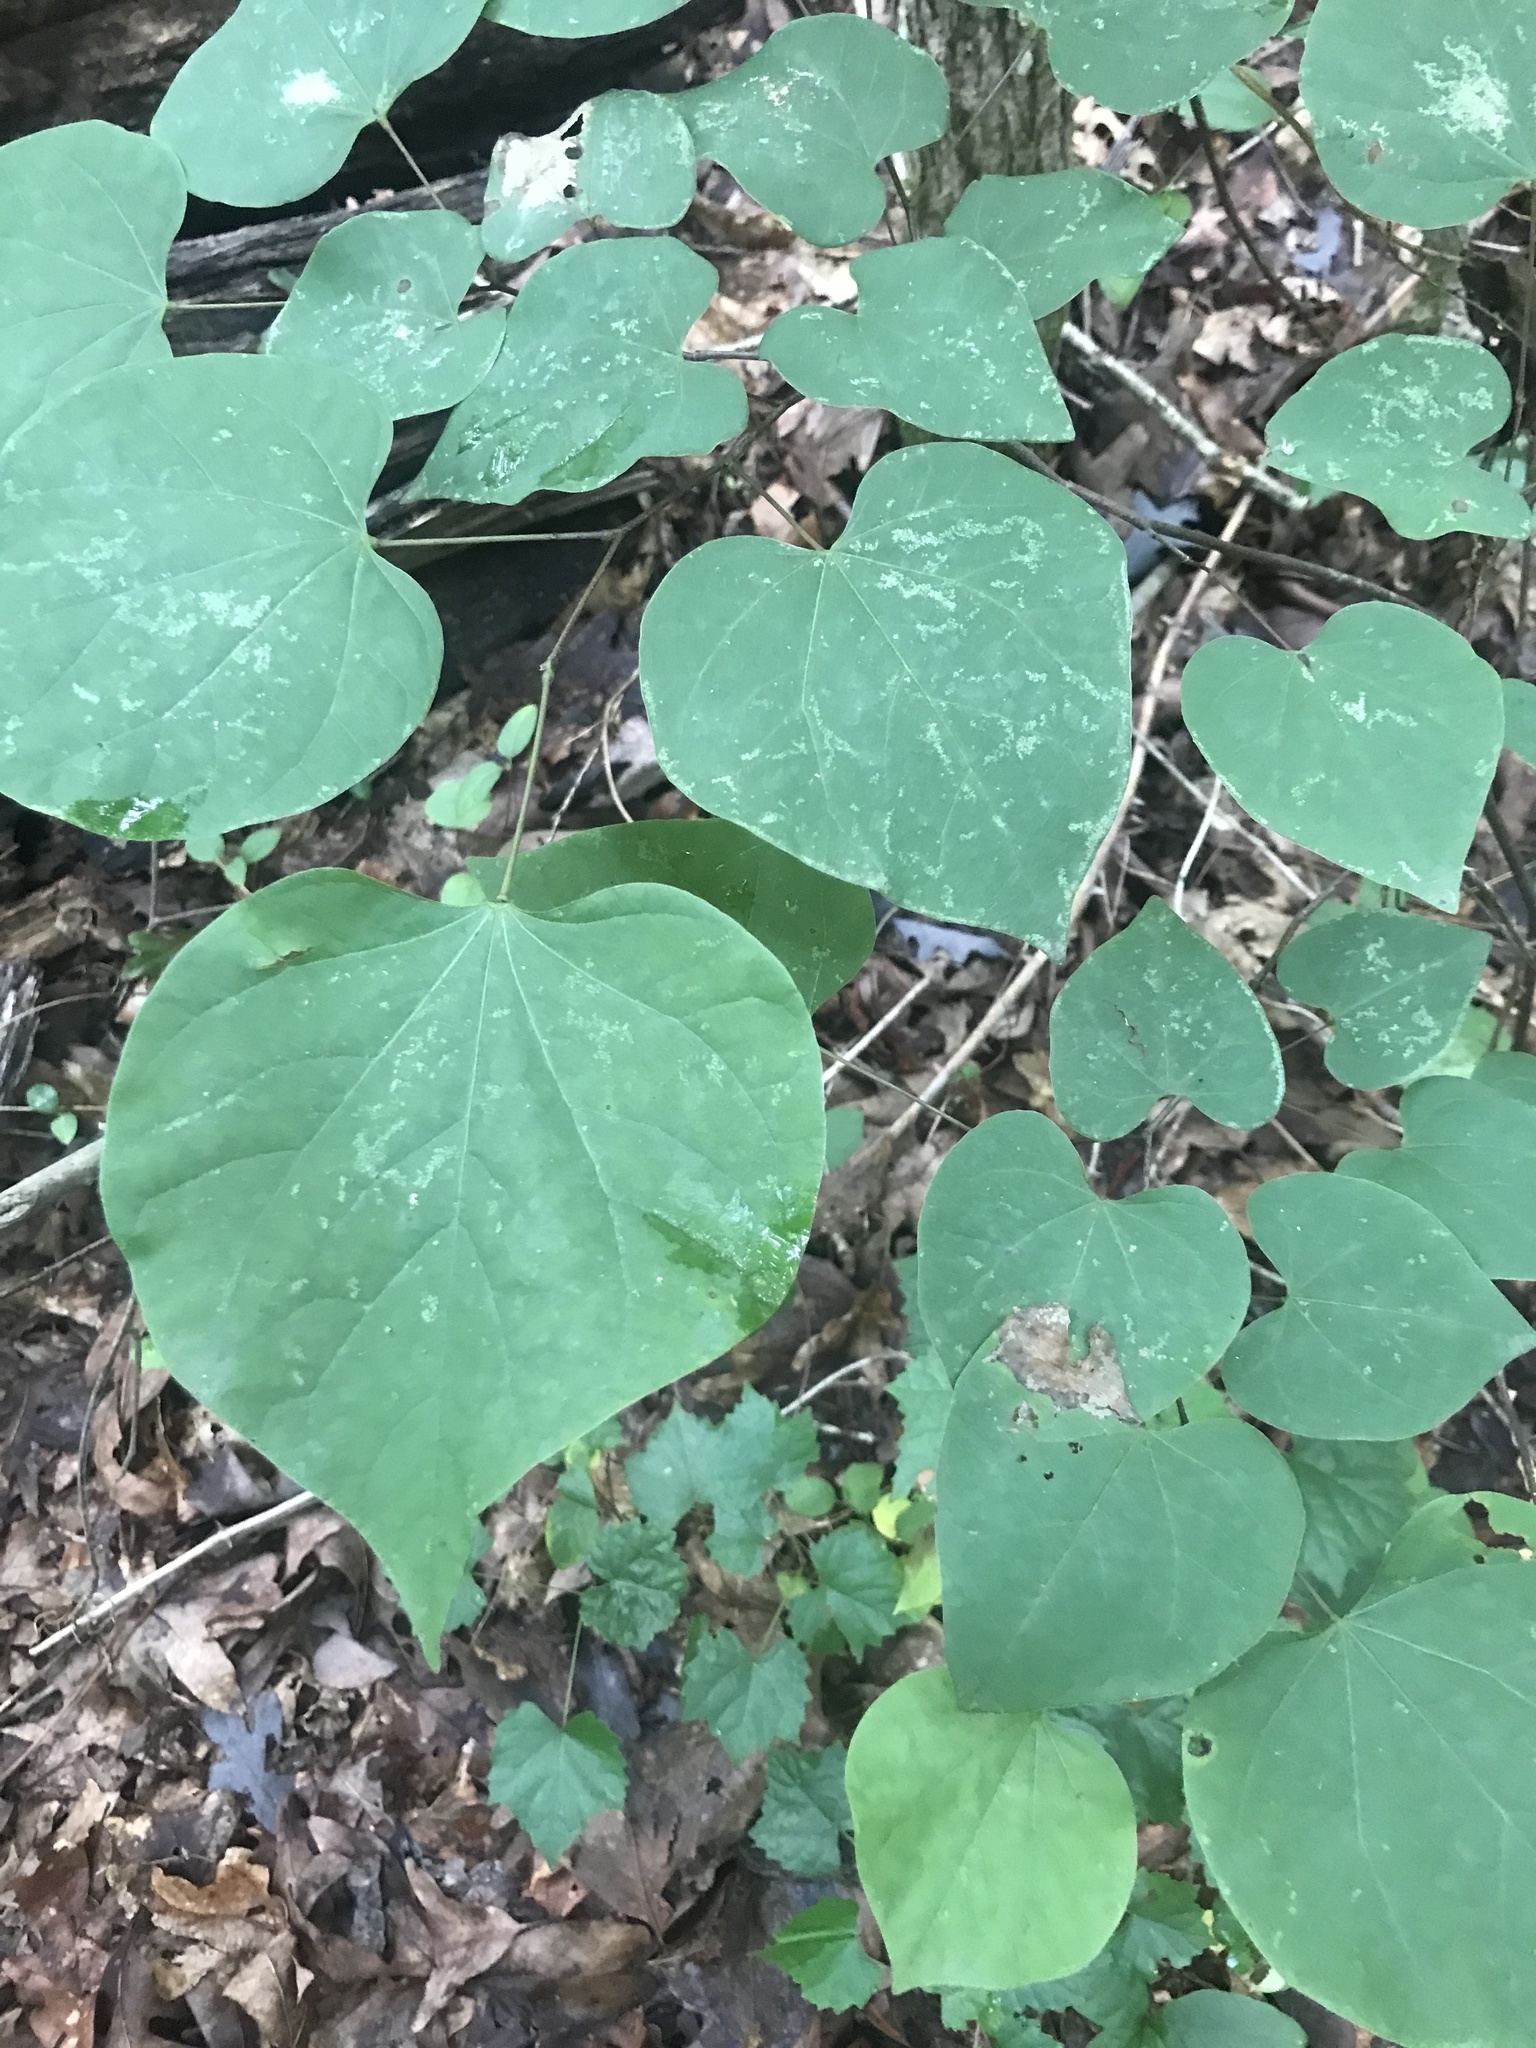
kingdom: Plantae
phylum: Tracheophyta
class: Magnoliopsida
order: Fabales
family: Fabaceae
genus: Cercis
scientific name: Cercis canadensis
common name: Eastern redbud
